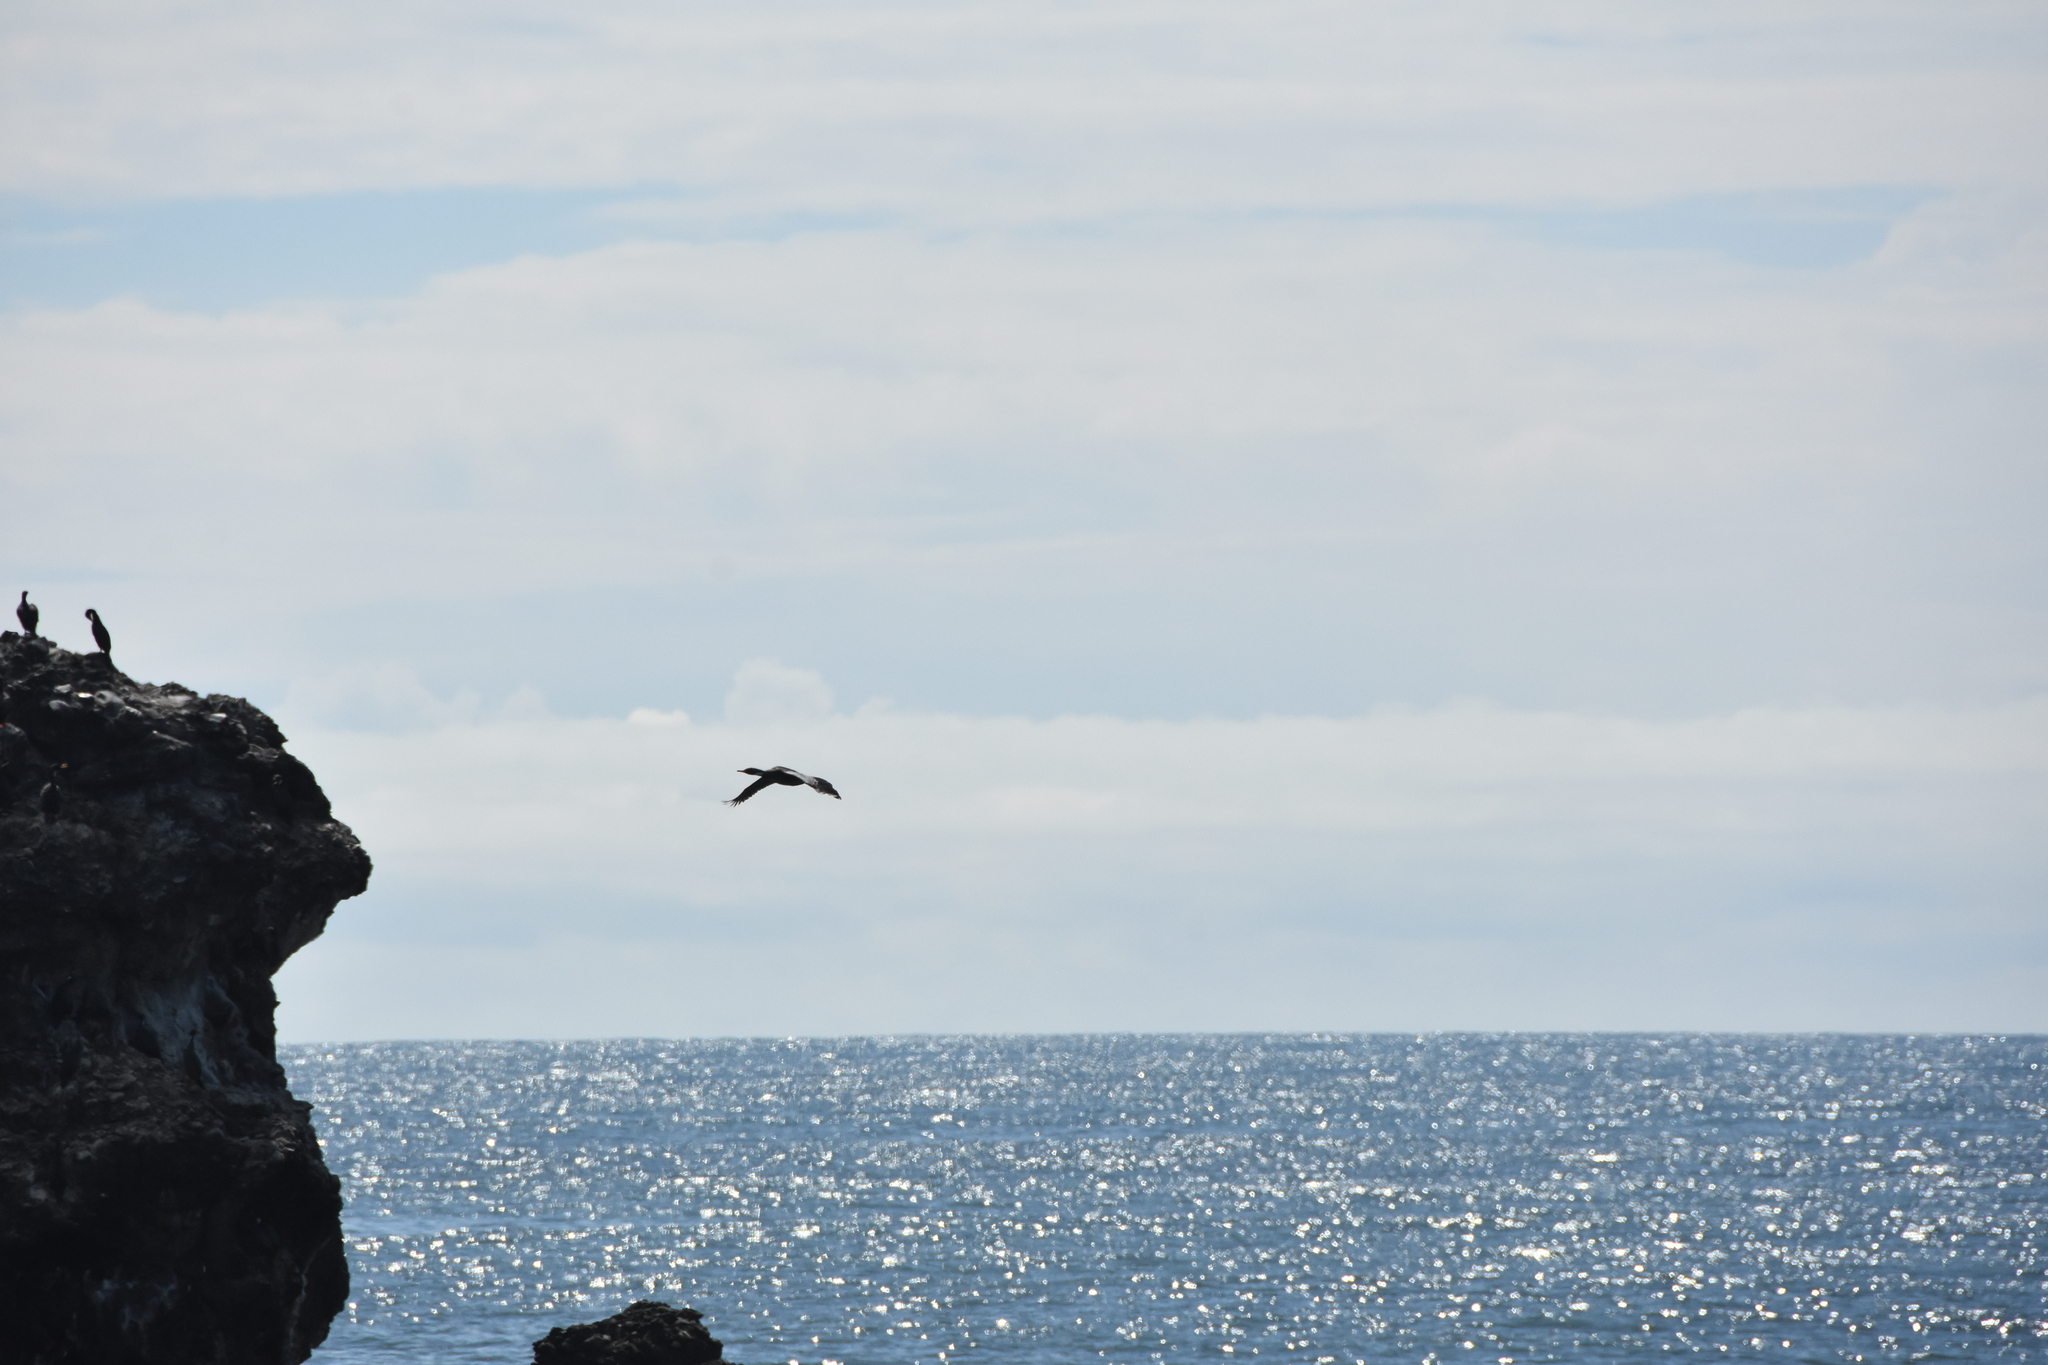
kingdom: Animalia
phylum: Chordata
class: Aves
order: Suliformes
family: Phalacrocoracidae
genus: Phalacrocorax
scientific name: Phalacrocorax gaimardi
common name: Red-legged cormorant
